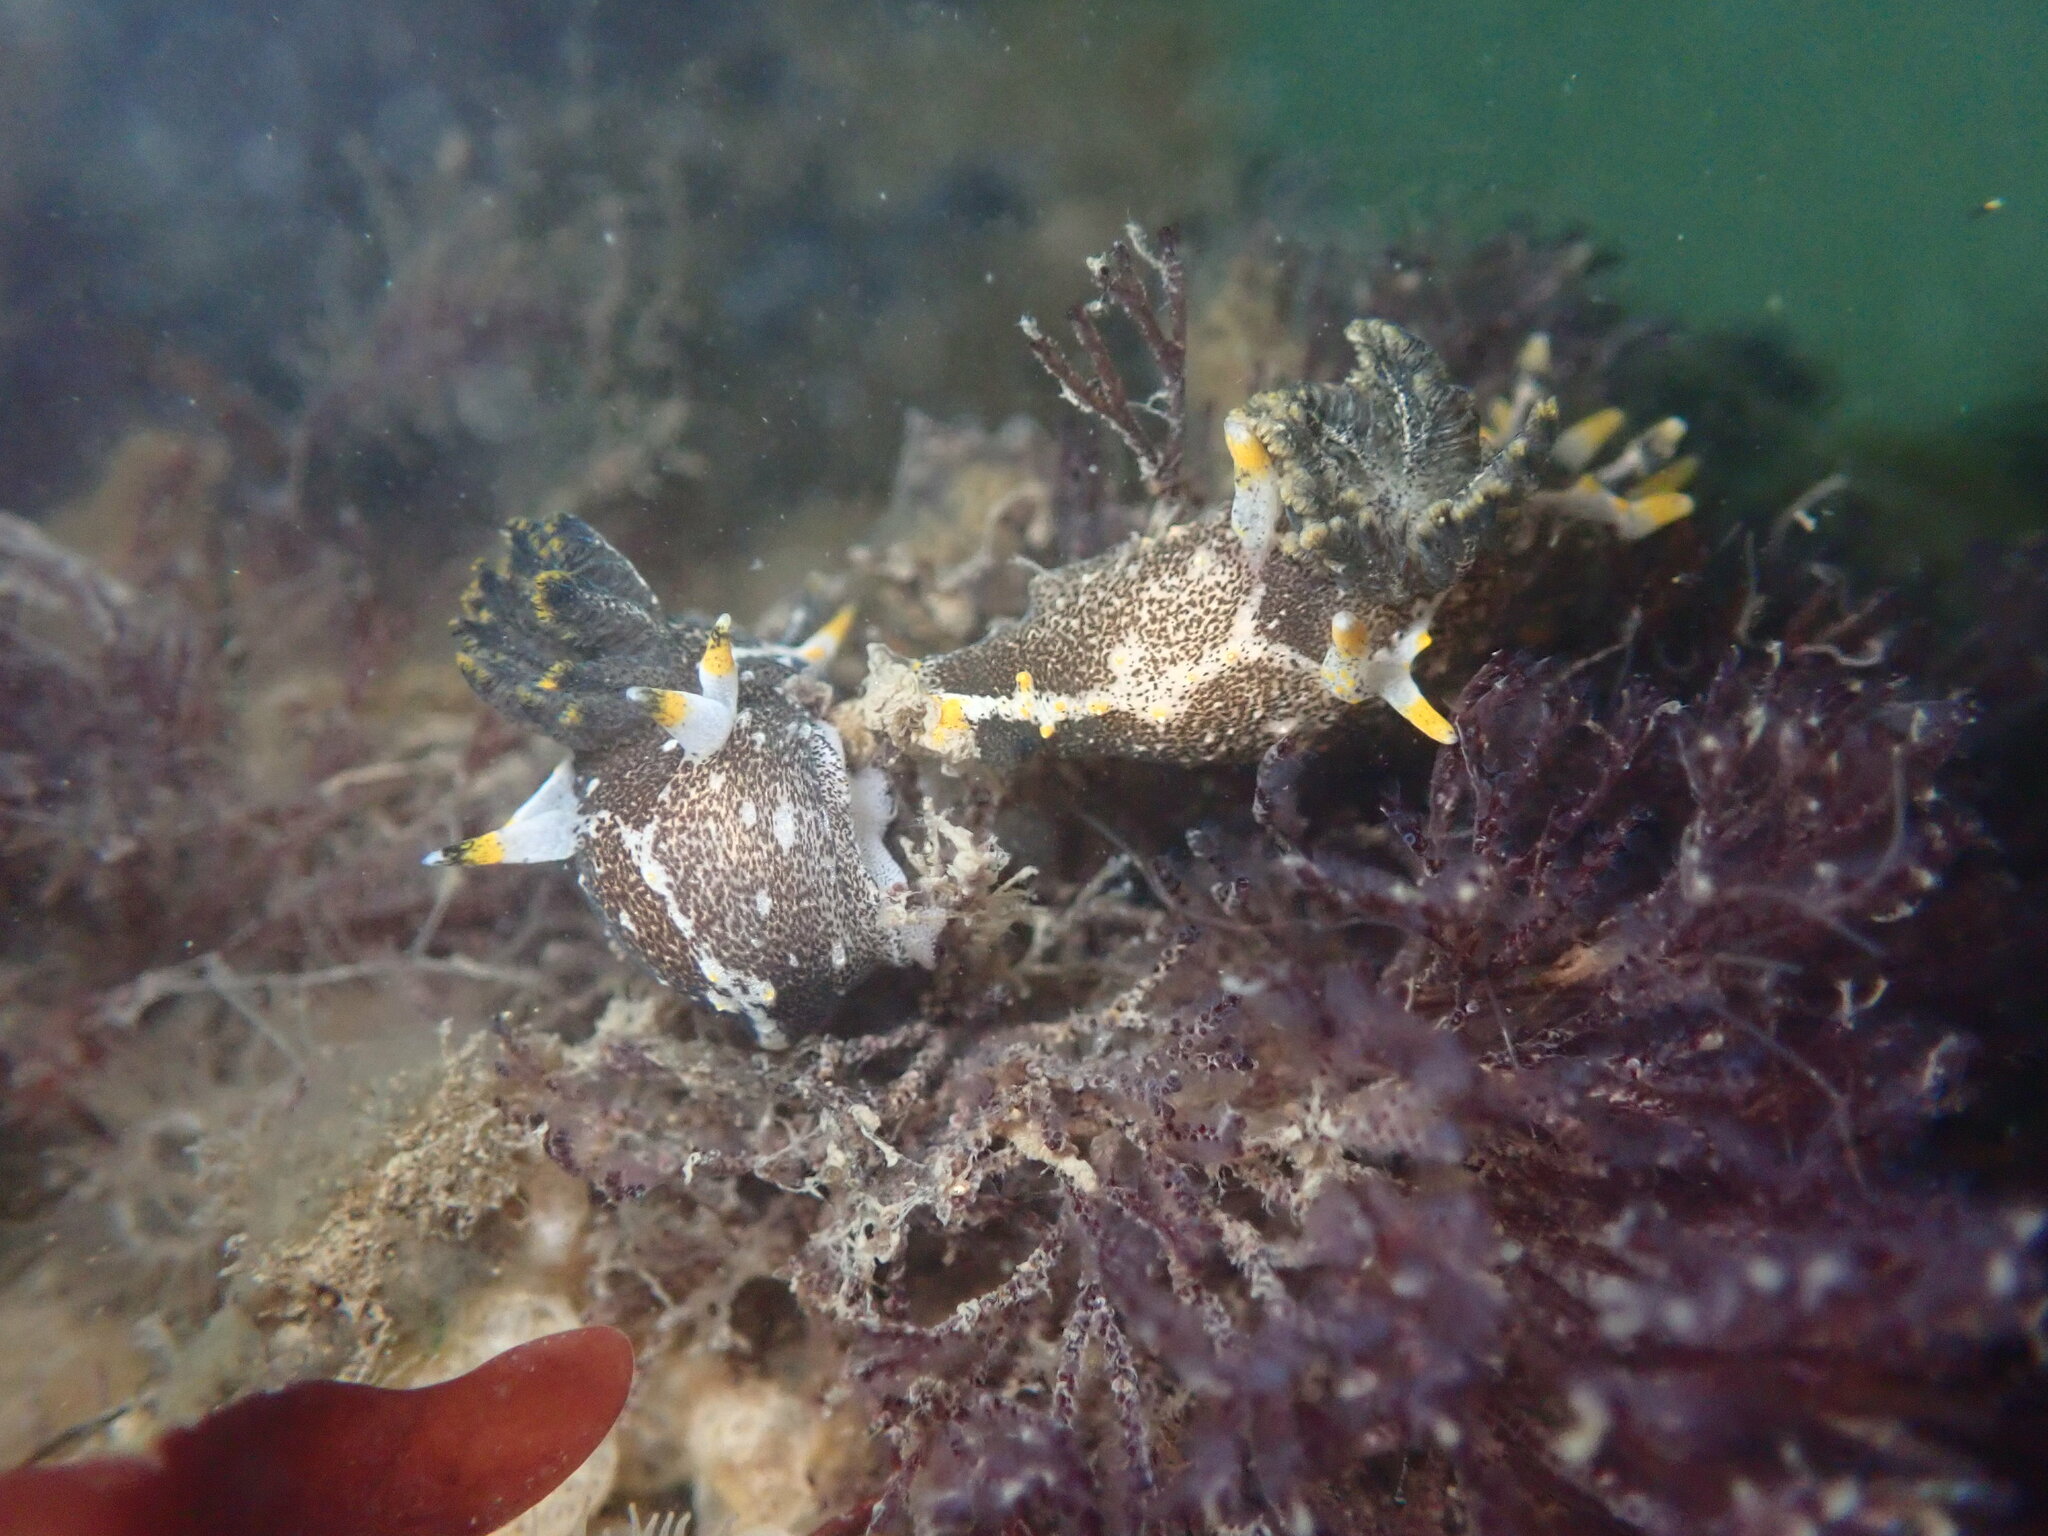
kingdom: Animalia
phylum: Mollusca
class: Gastropoda
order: Nudibranchia
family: Polyceridae
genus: Polycera
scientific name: Polycera hedgpethi
